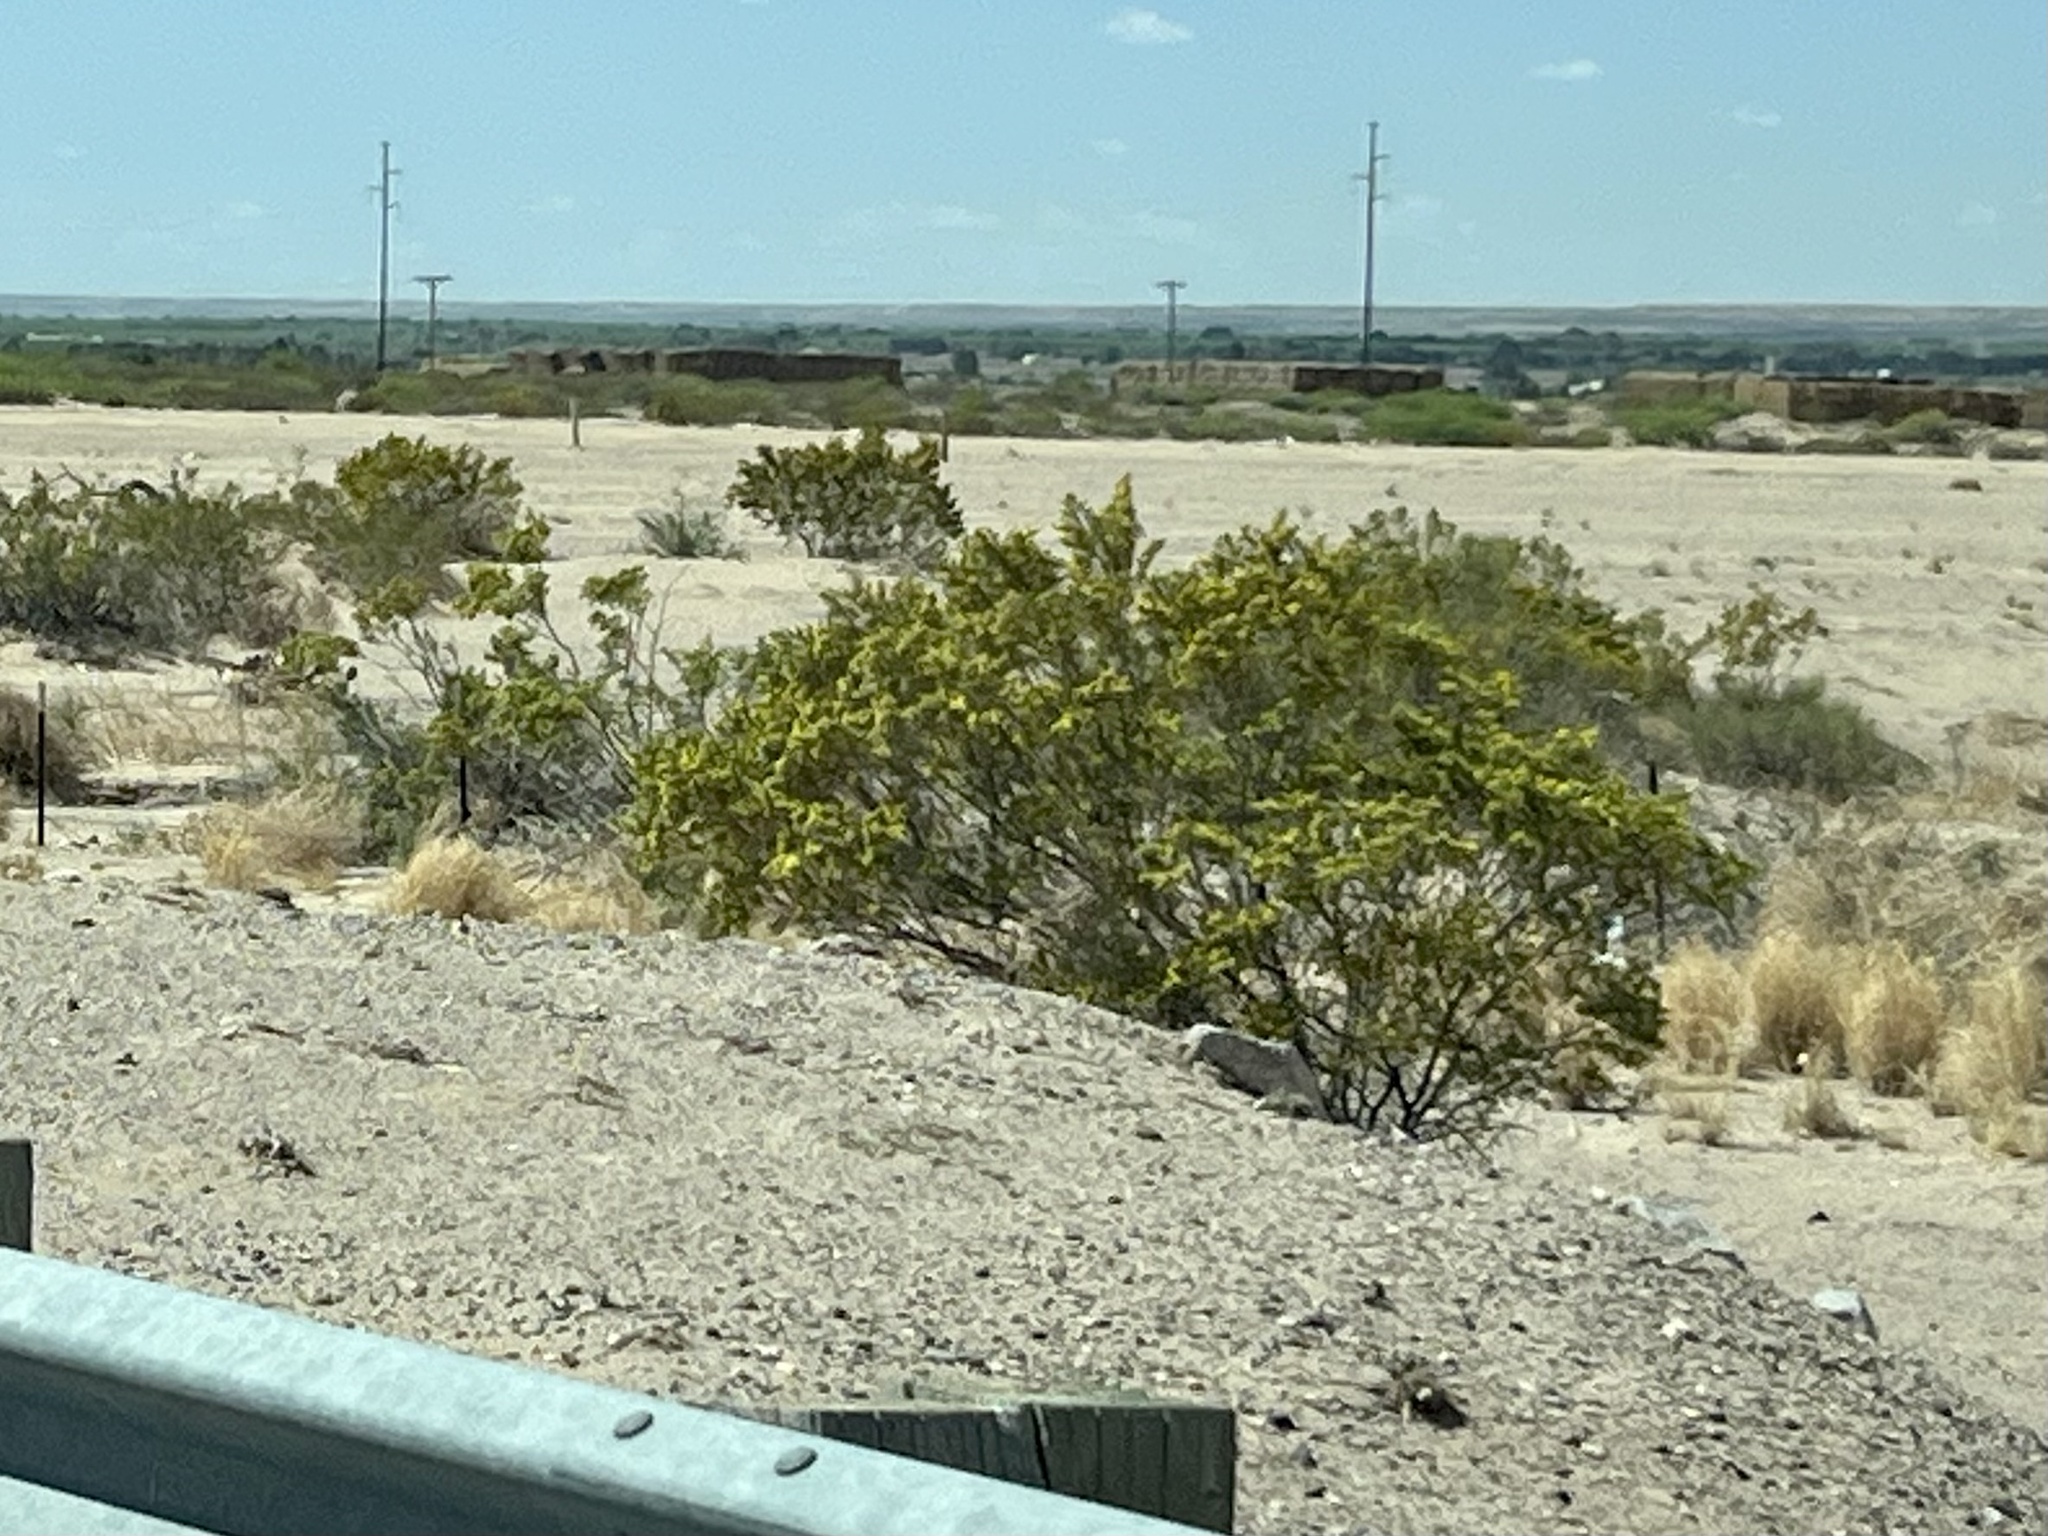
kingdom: Plantae
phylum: Tracheophyta
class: Magnoliopsida
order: Zygophyllales
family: Zygophyllaceae
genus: Larrea
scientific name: Larrea tridentata
